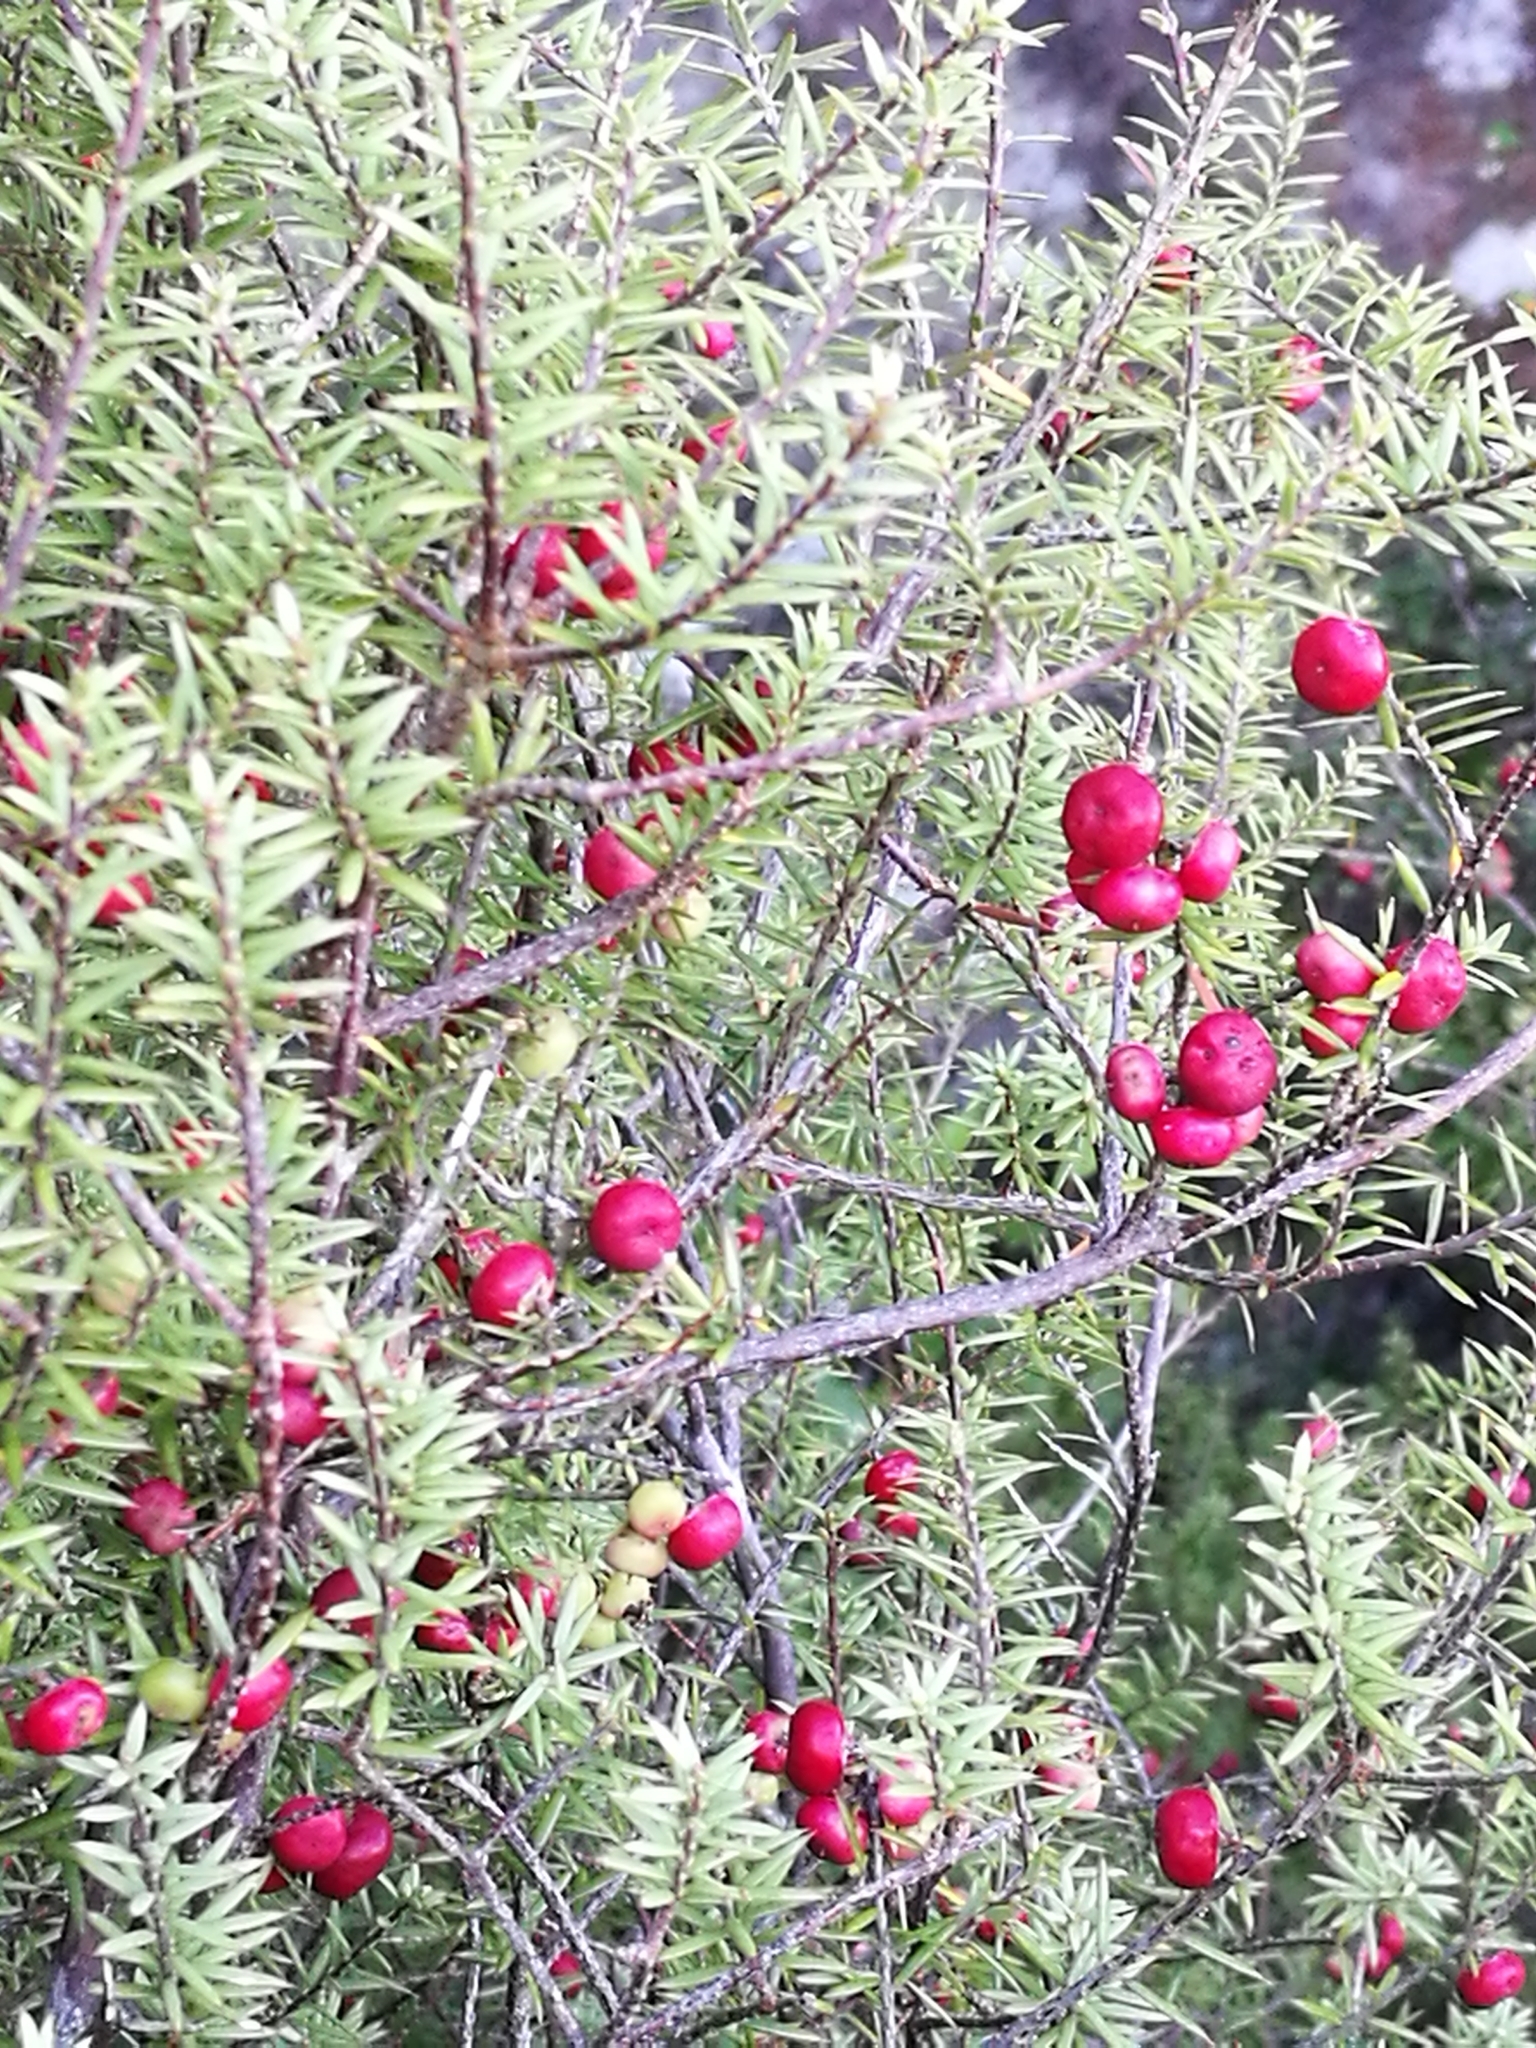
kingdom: Plantae
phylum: Tracheophyta
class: Magnoliopsida
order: Ericales
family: Ericaceae
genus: Leptecophylla
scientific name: Leptecophylla juniperina
